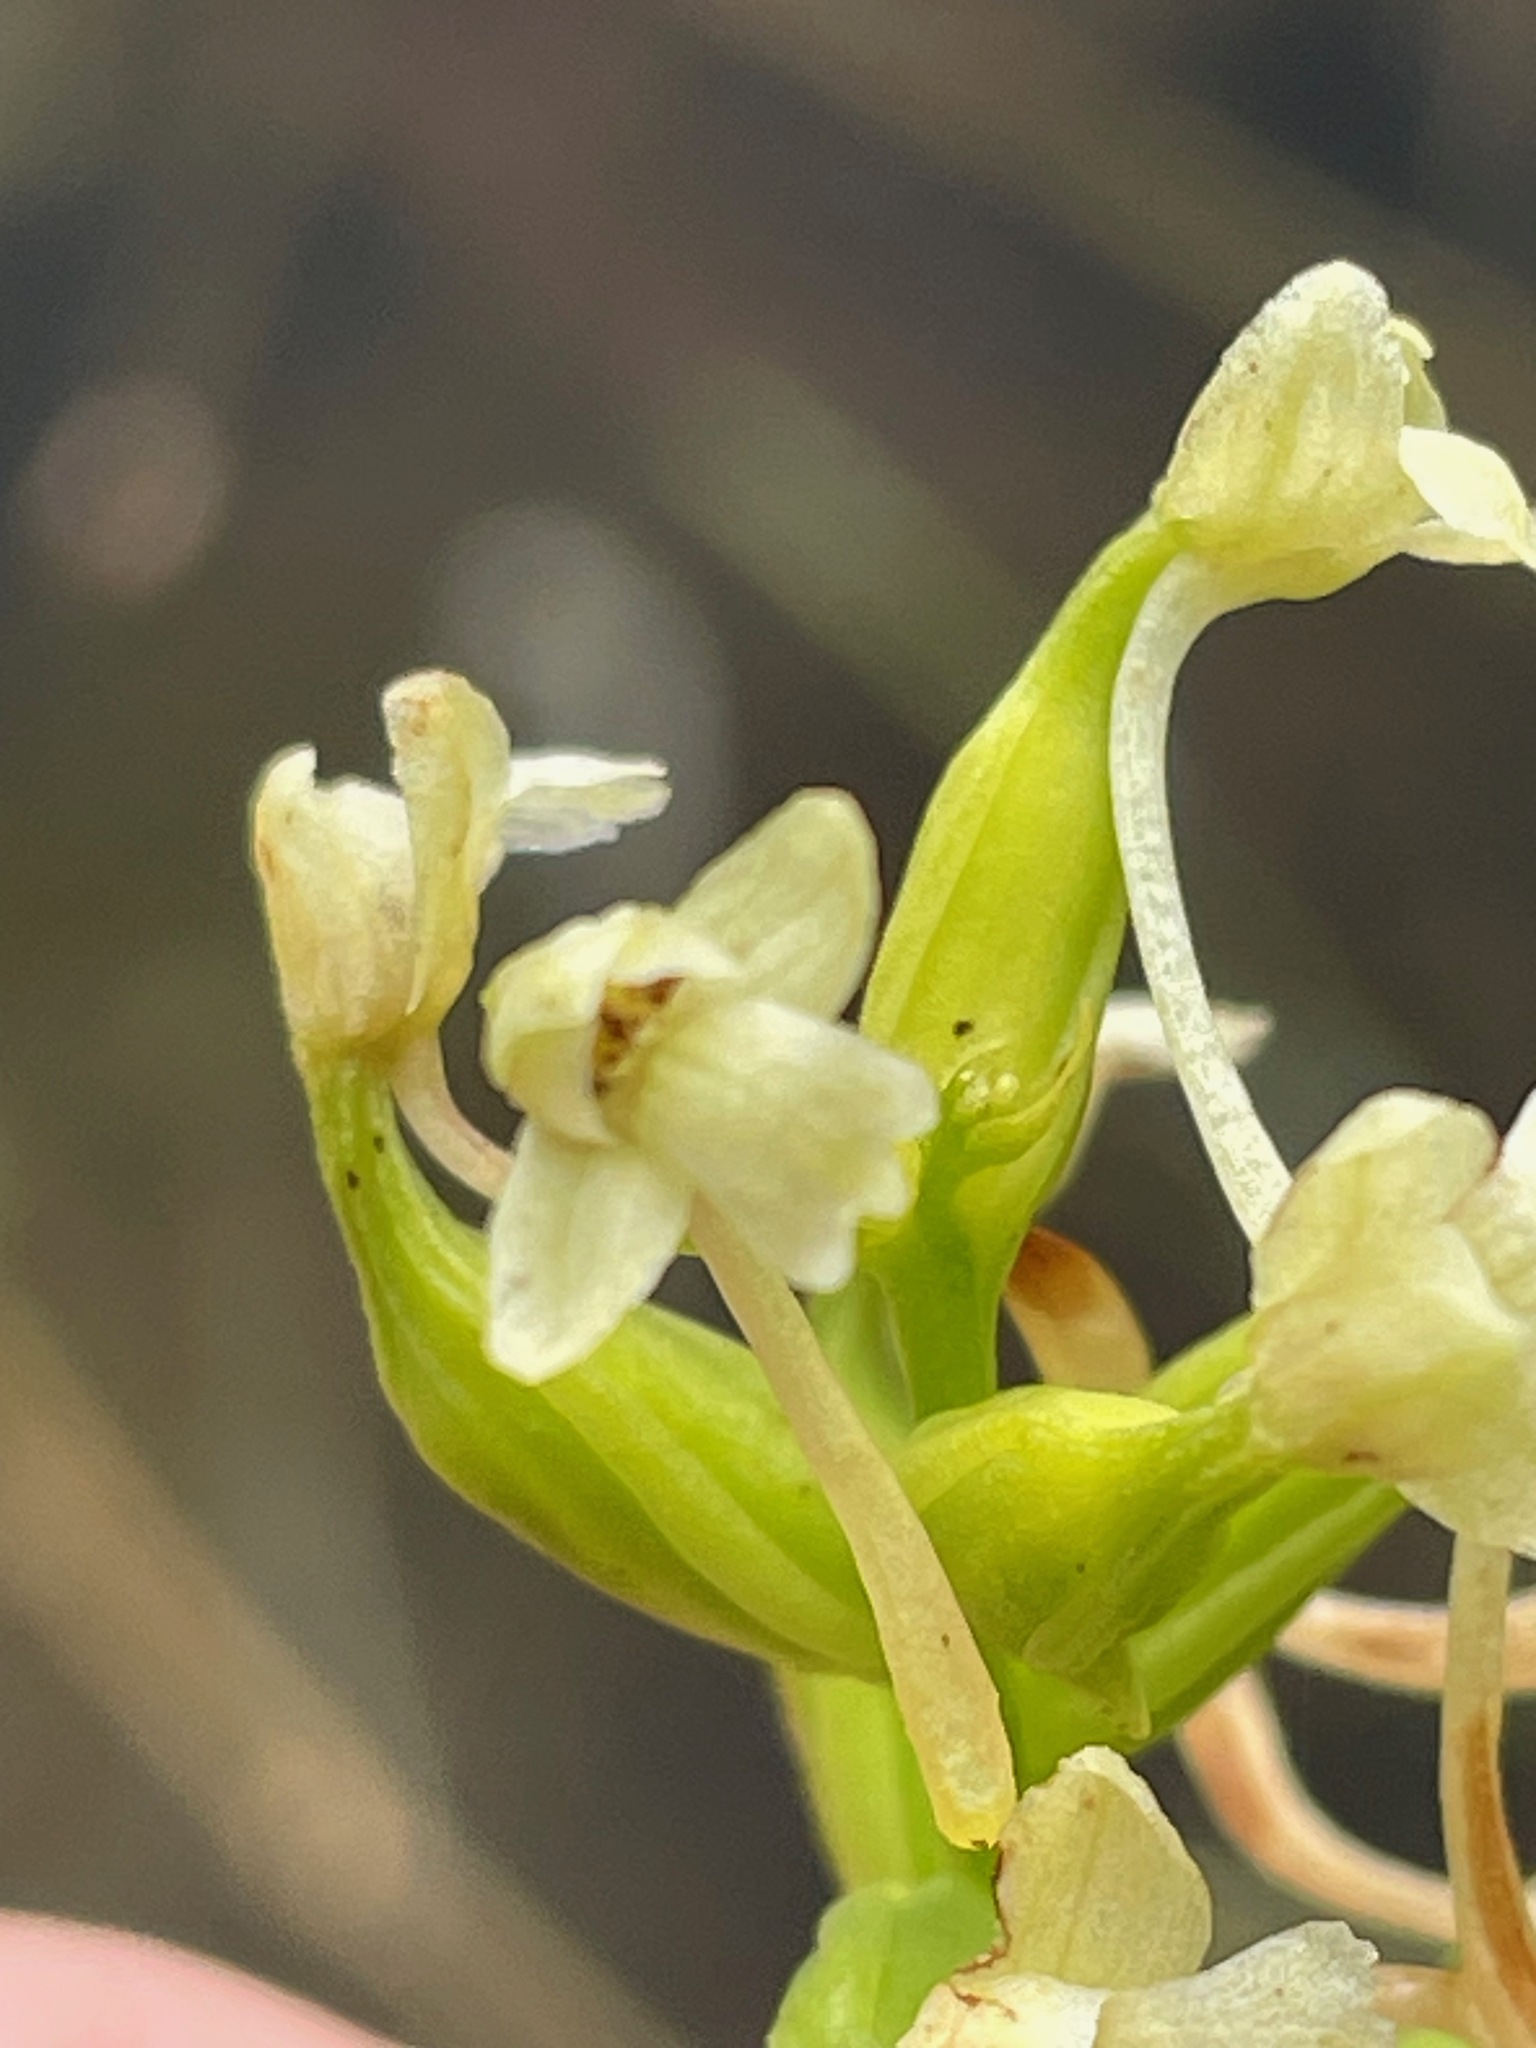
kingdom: Plantae
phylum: Tracheophyta
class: Liliopsida
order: Asparagales
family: Orchidaceae
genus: Platanthera
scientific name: Platanthera clavellata
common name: Club-spur orchid
